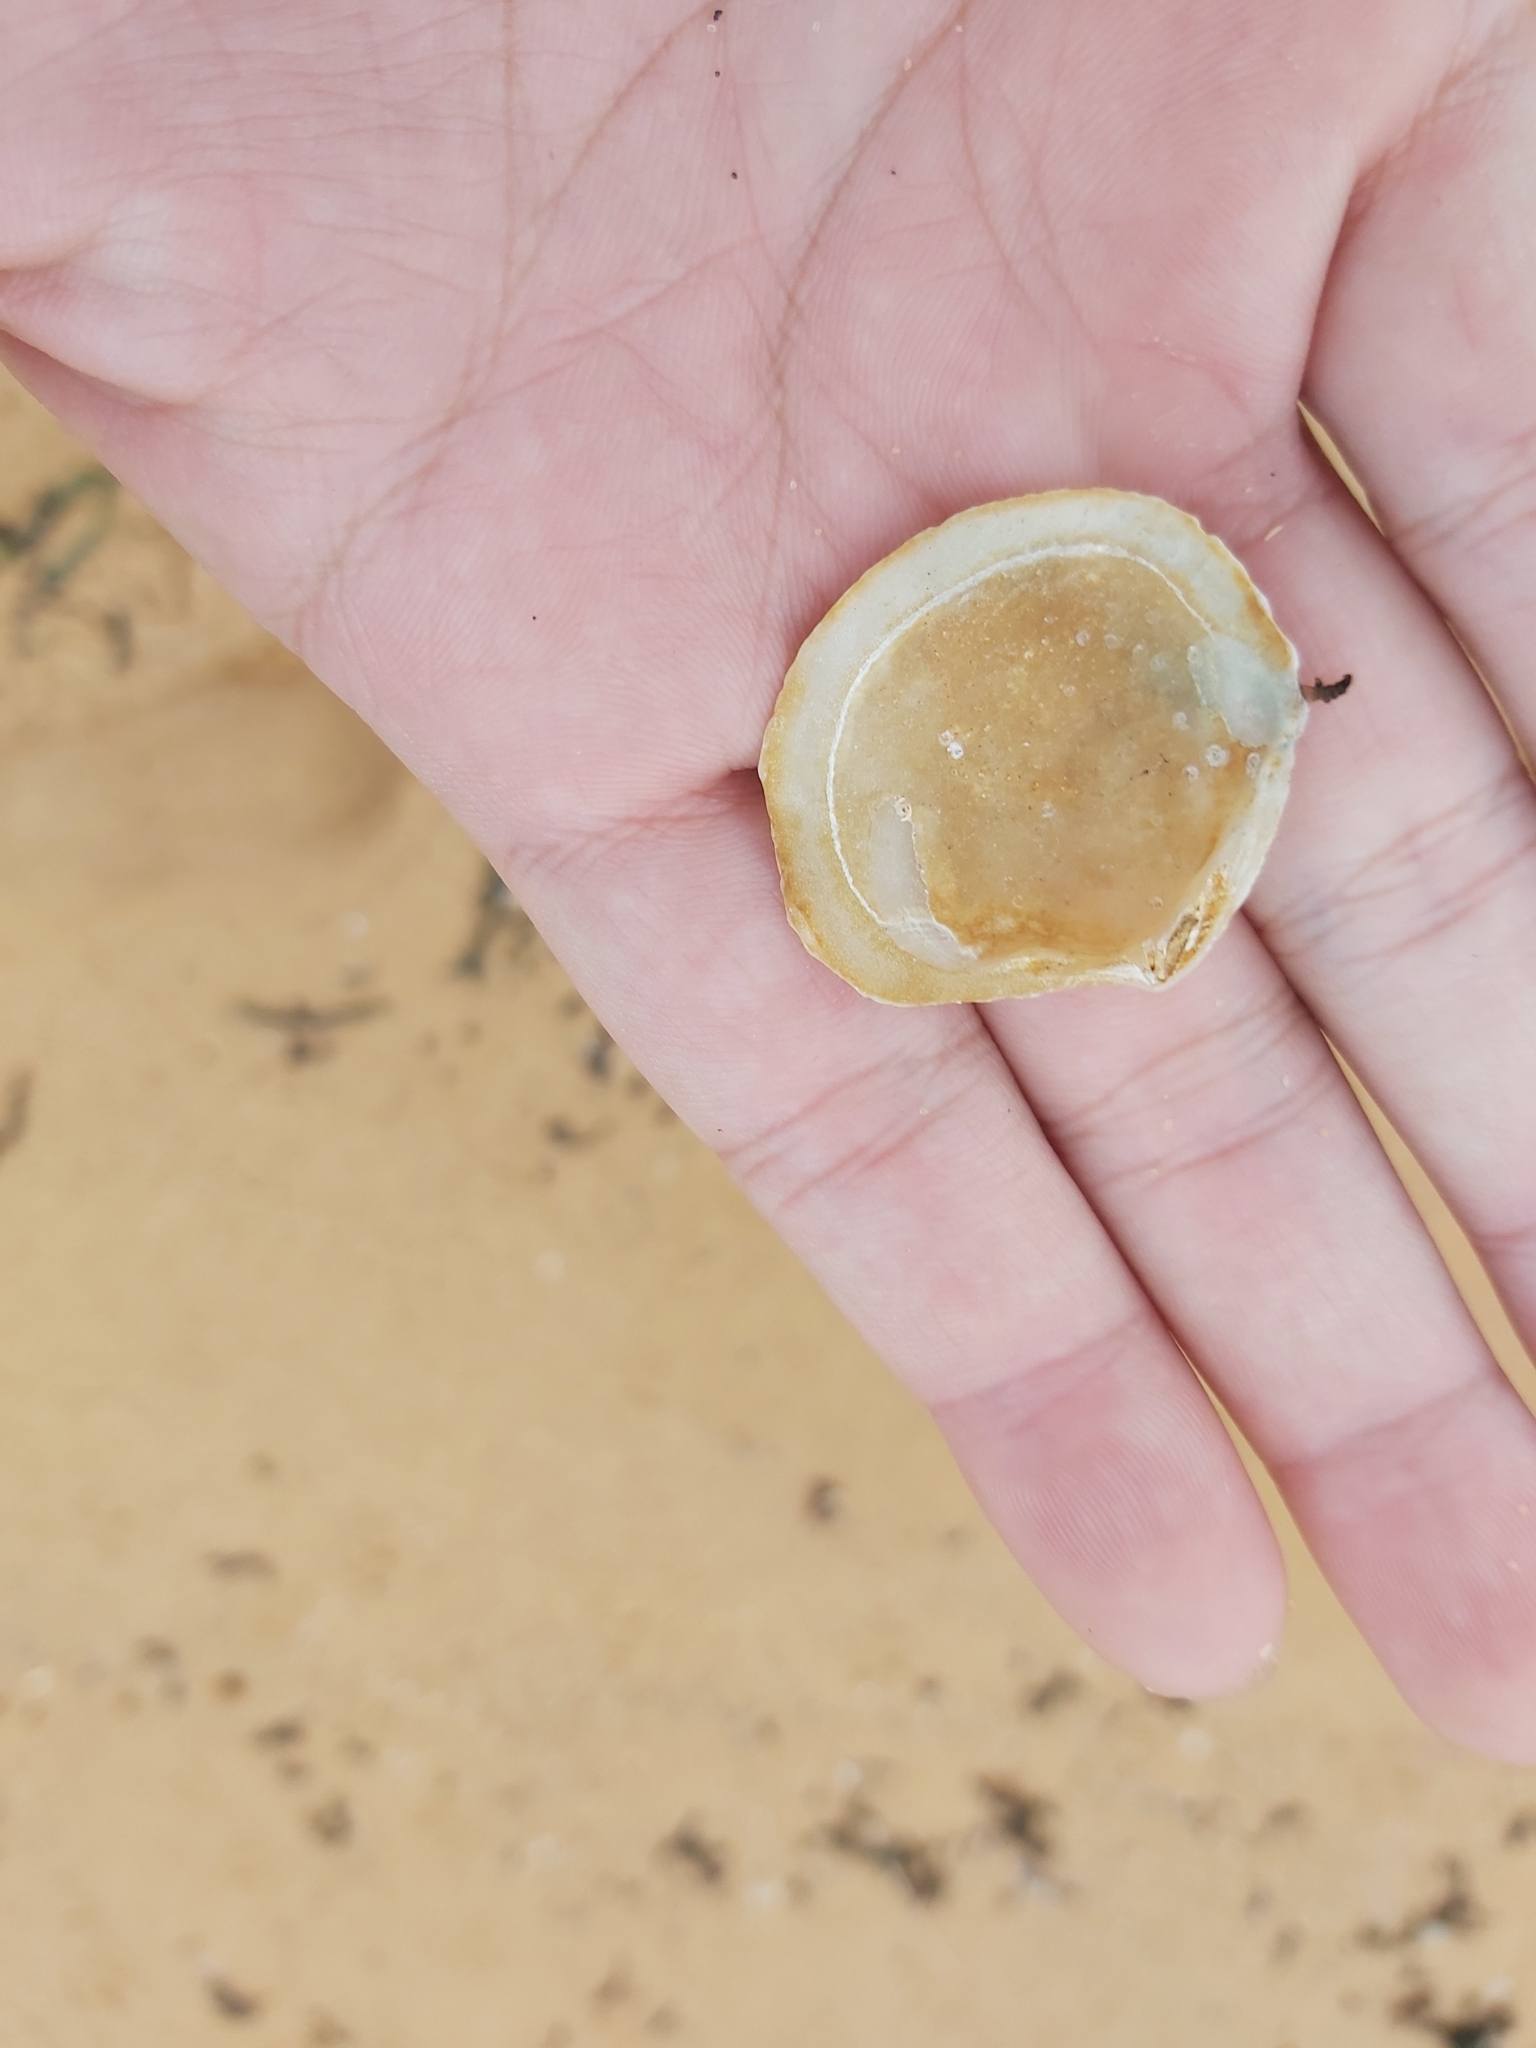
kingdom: Animalia
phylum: Mollusca
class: Bivalvia
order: Lucinida
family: Lucinidae
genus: Codakia
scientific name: Codakia rugifera
